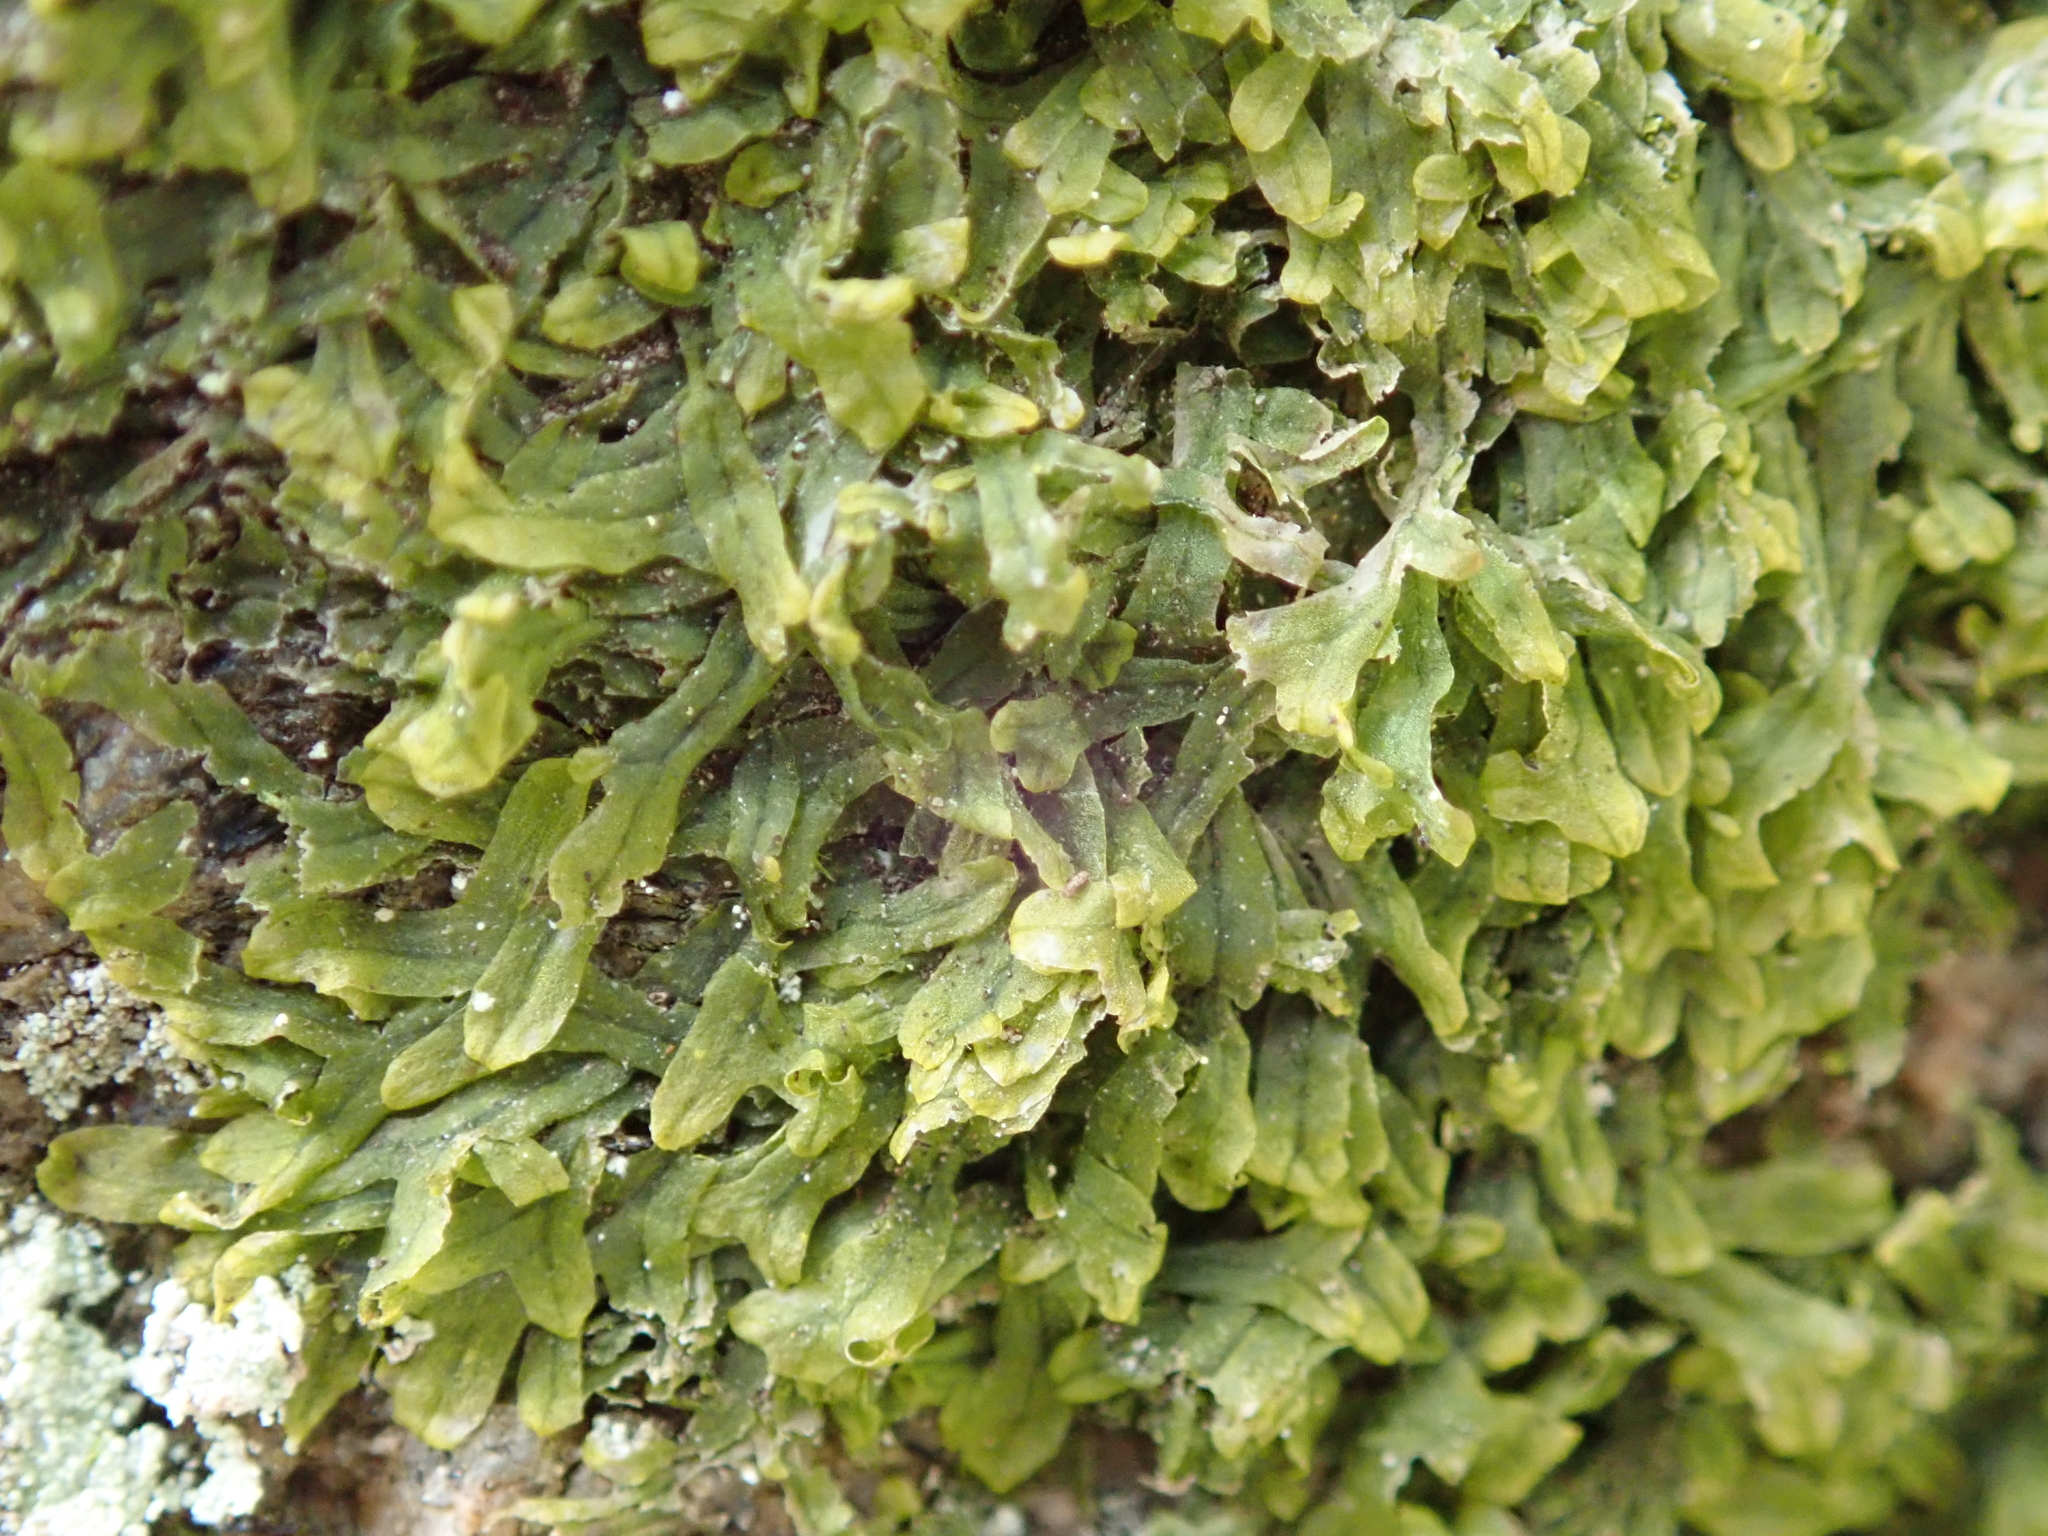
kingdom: Plantae
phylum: Marchantiophyta
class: Jungermanniopsida
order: Metzgeriales
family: Metzgeriaceae
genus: Metzgeria
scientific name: Metzgeria furcata
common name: Forked veilwort
